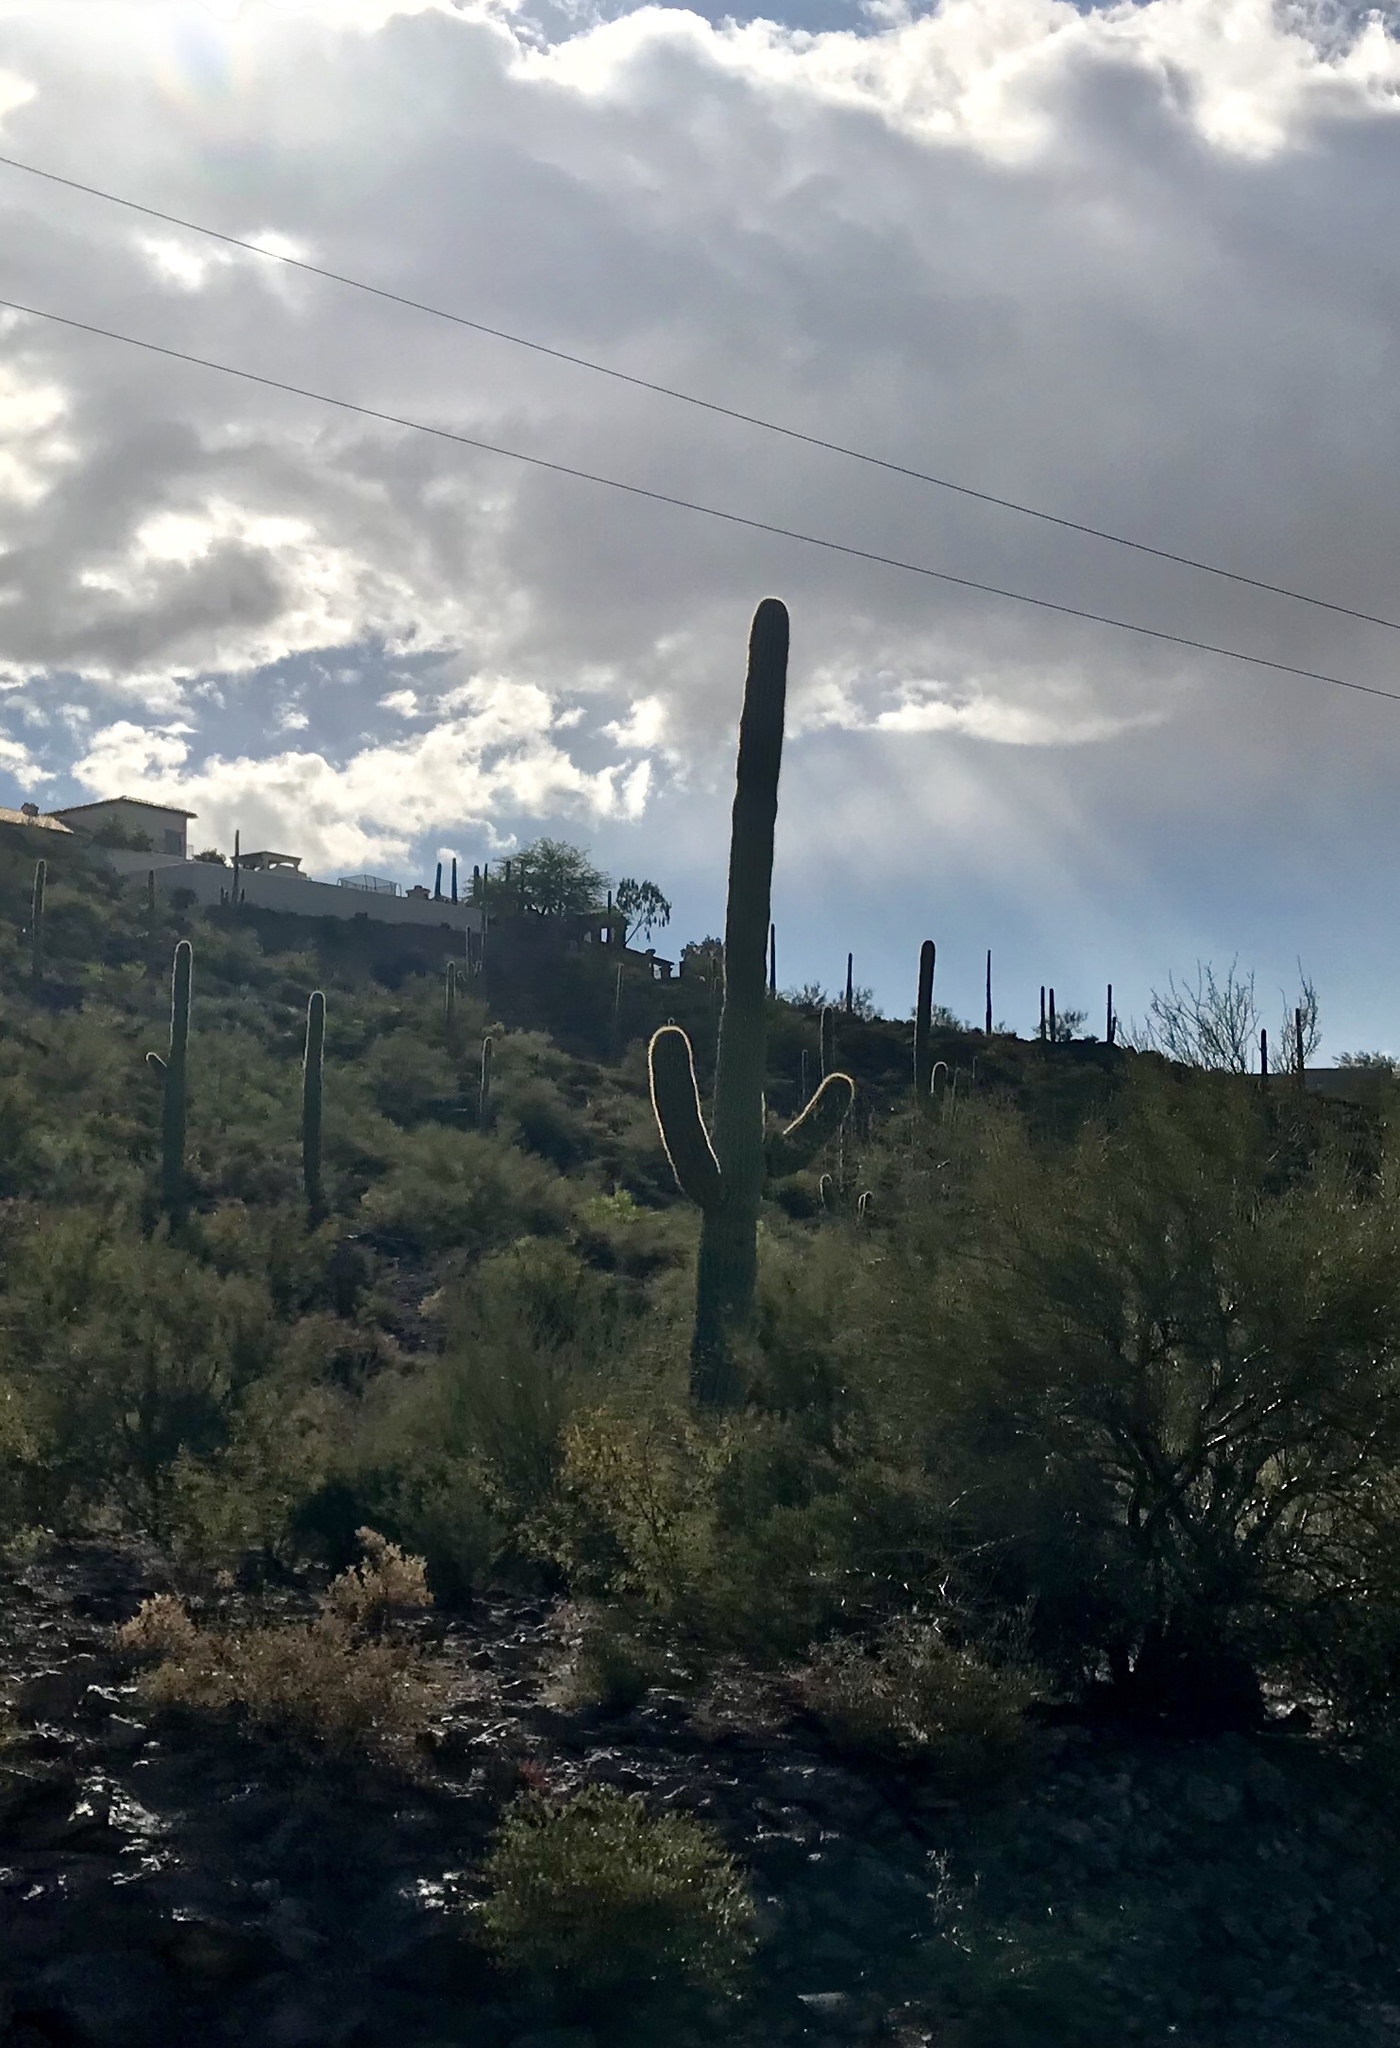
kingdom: Plantae
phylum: Tracheophyta
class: Magnoliopsida
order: Caryophyllales
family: Cactaceae
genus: Carnegiea
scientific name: Carnegiea gigantea
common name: Saguaro
